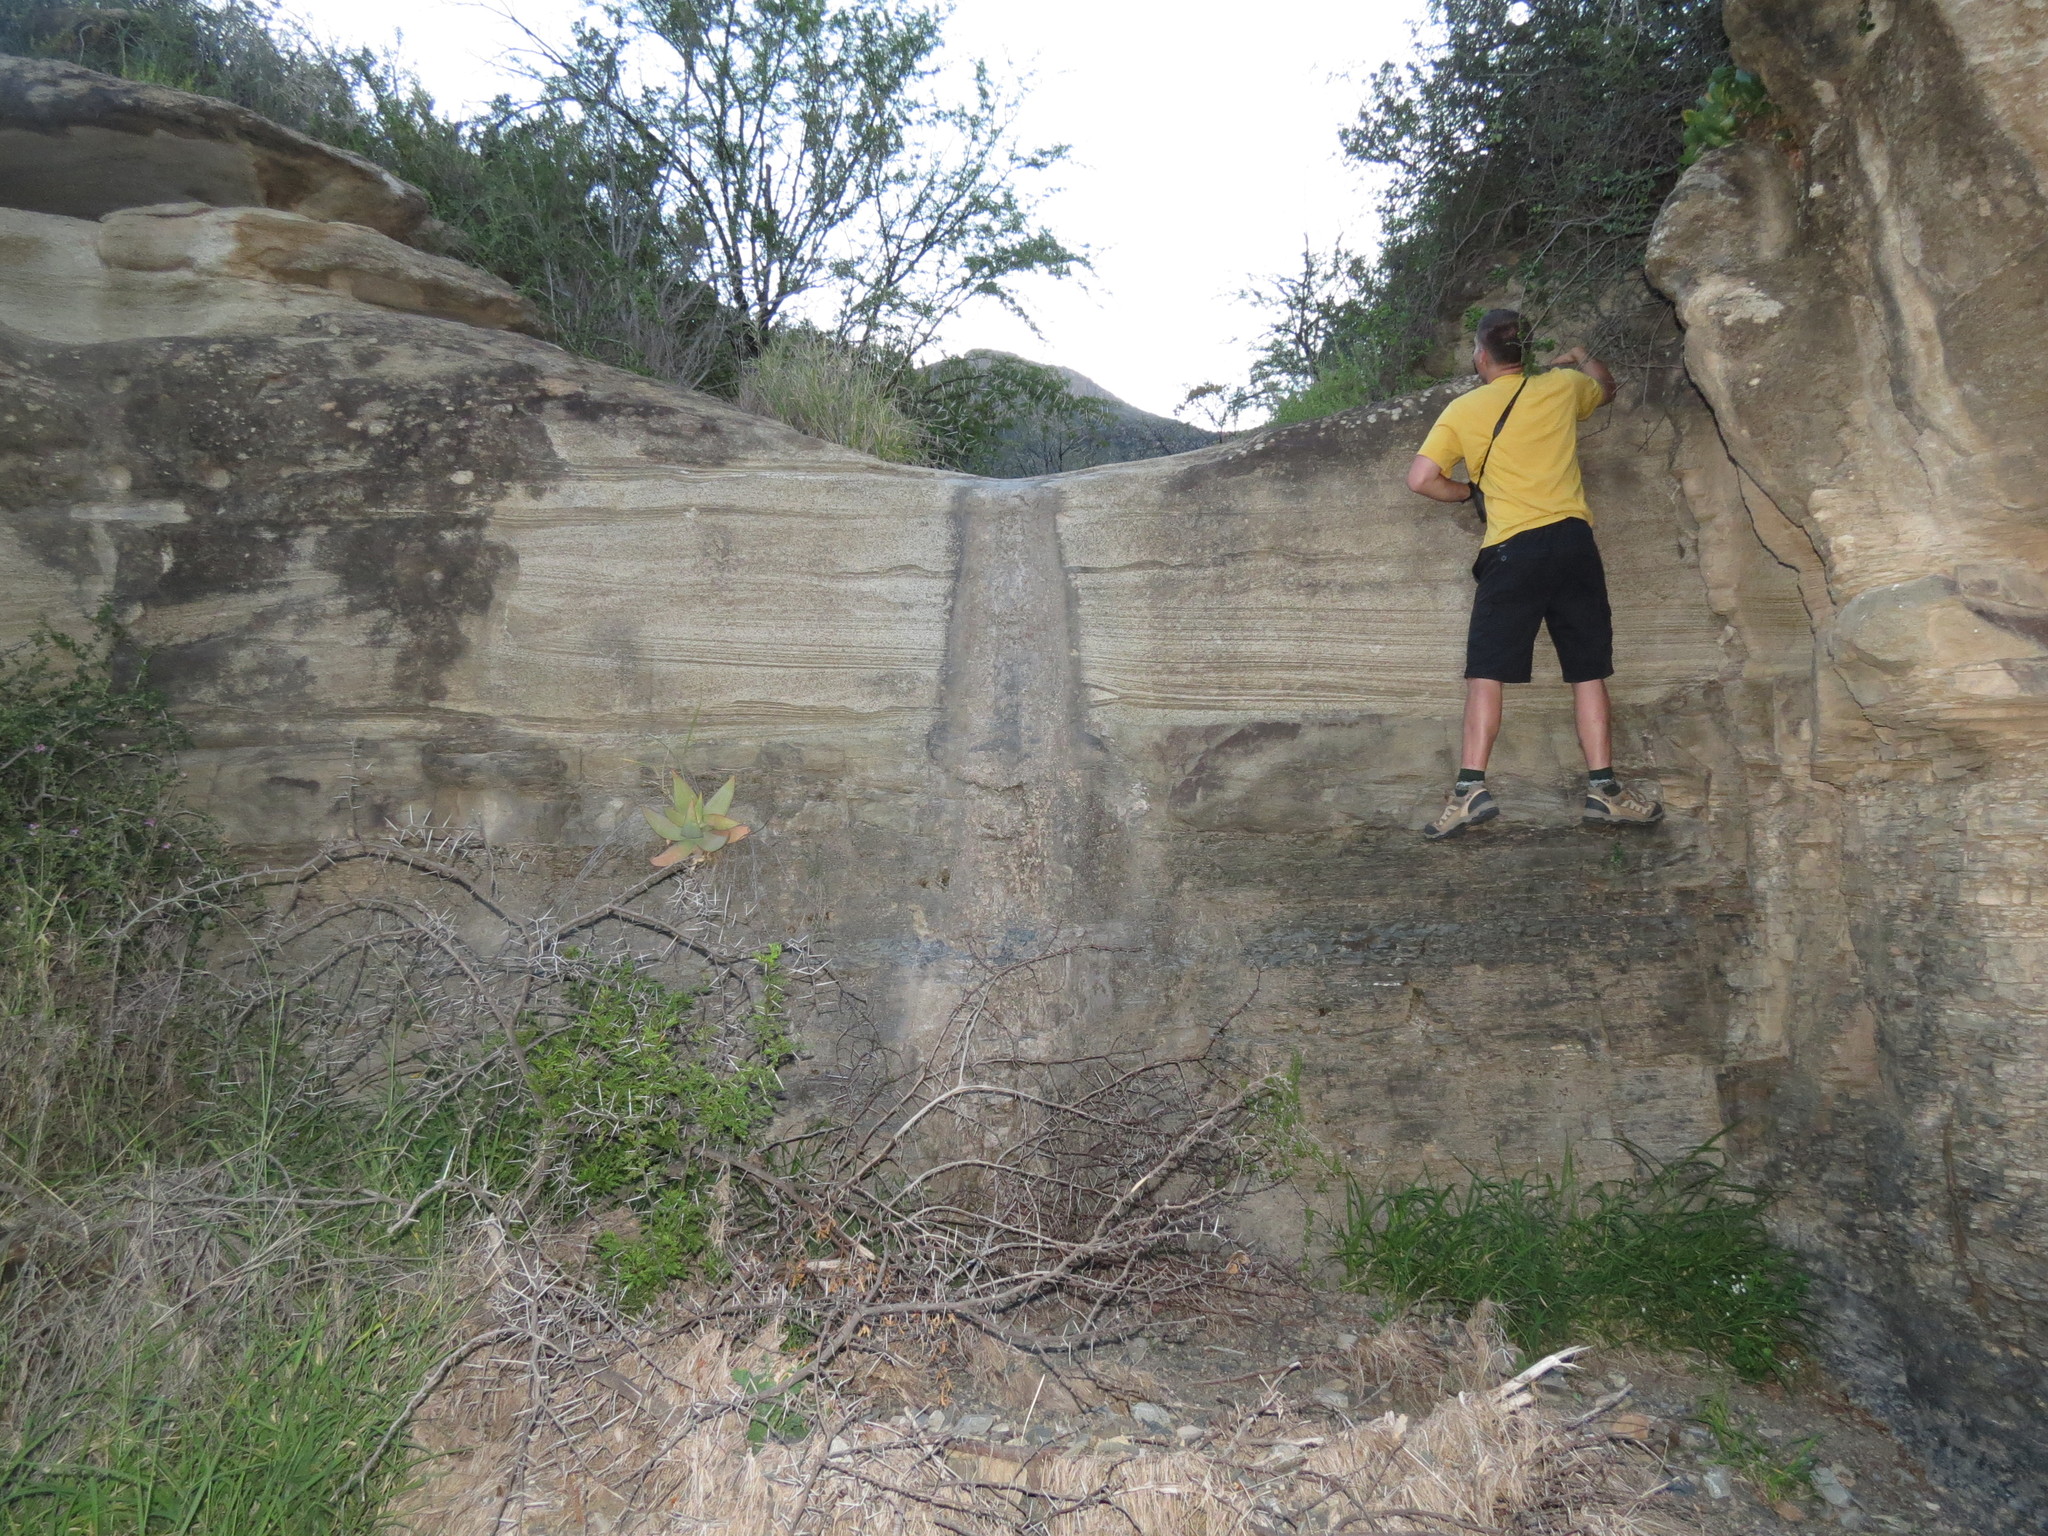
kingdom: Plantae
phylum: Tracheophyta
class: Liliopsida
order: Asparagales
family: Asphodelaceae
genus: Aloe
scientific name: Aloe striata
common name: Coral aloe
